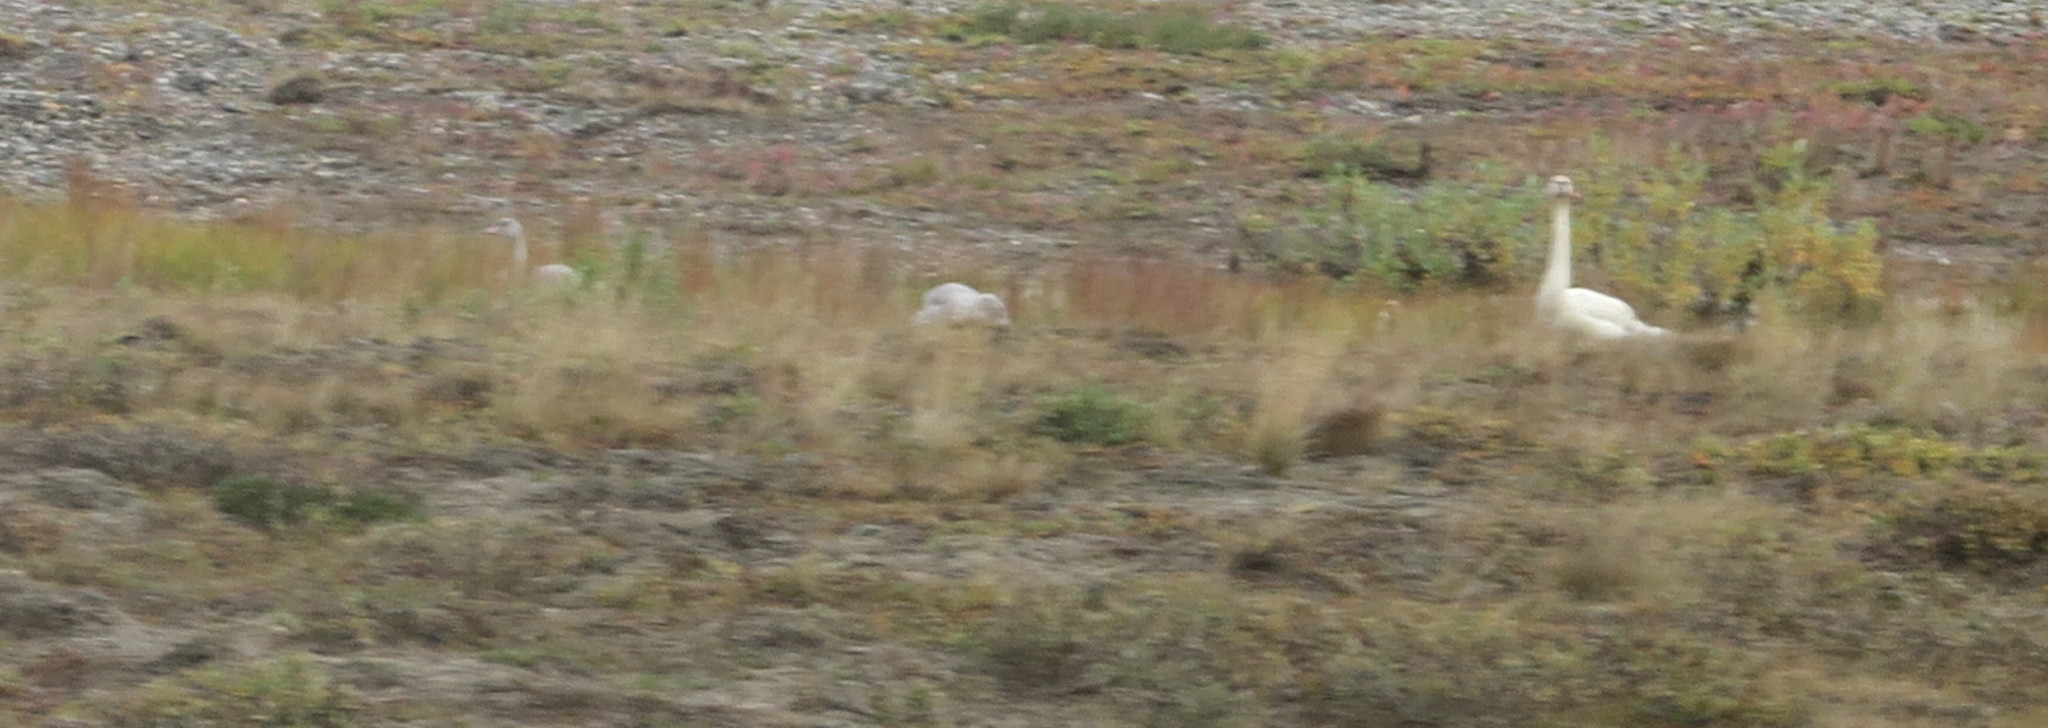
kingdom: Animalia
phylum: Chordata
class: Aves
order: Anseriformes
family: Anatidae
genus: Cygnus
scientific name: Cygnus columbianus
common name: Tundra swan
